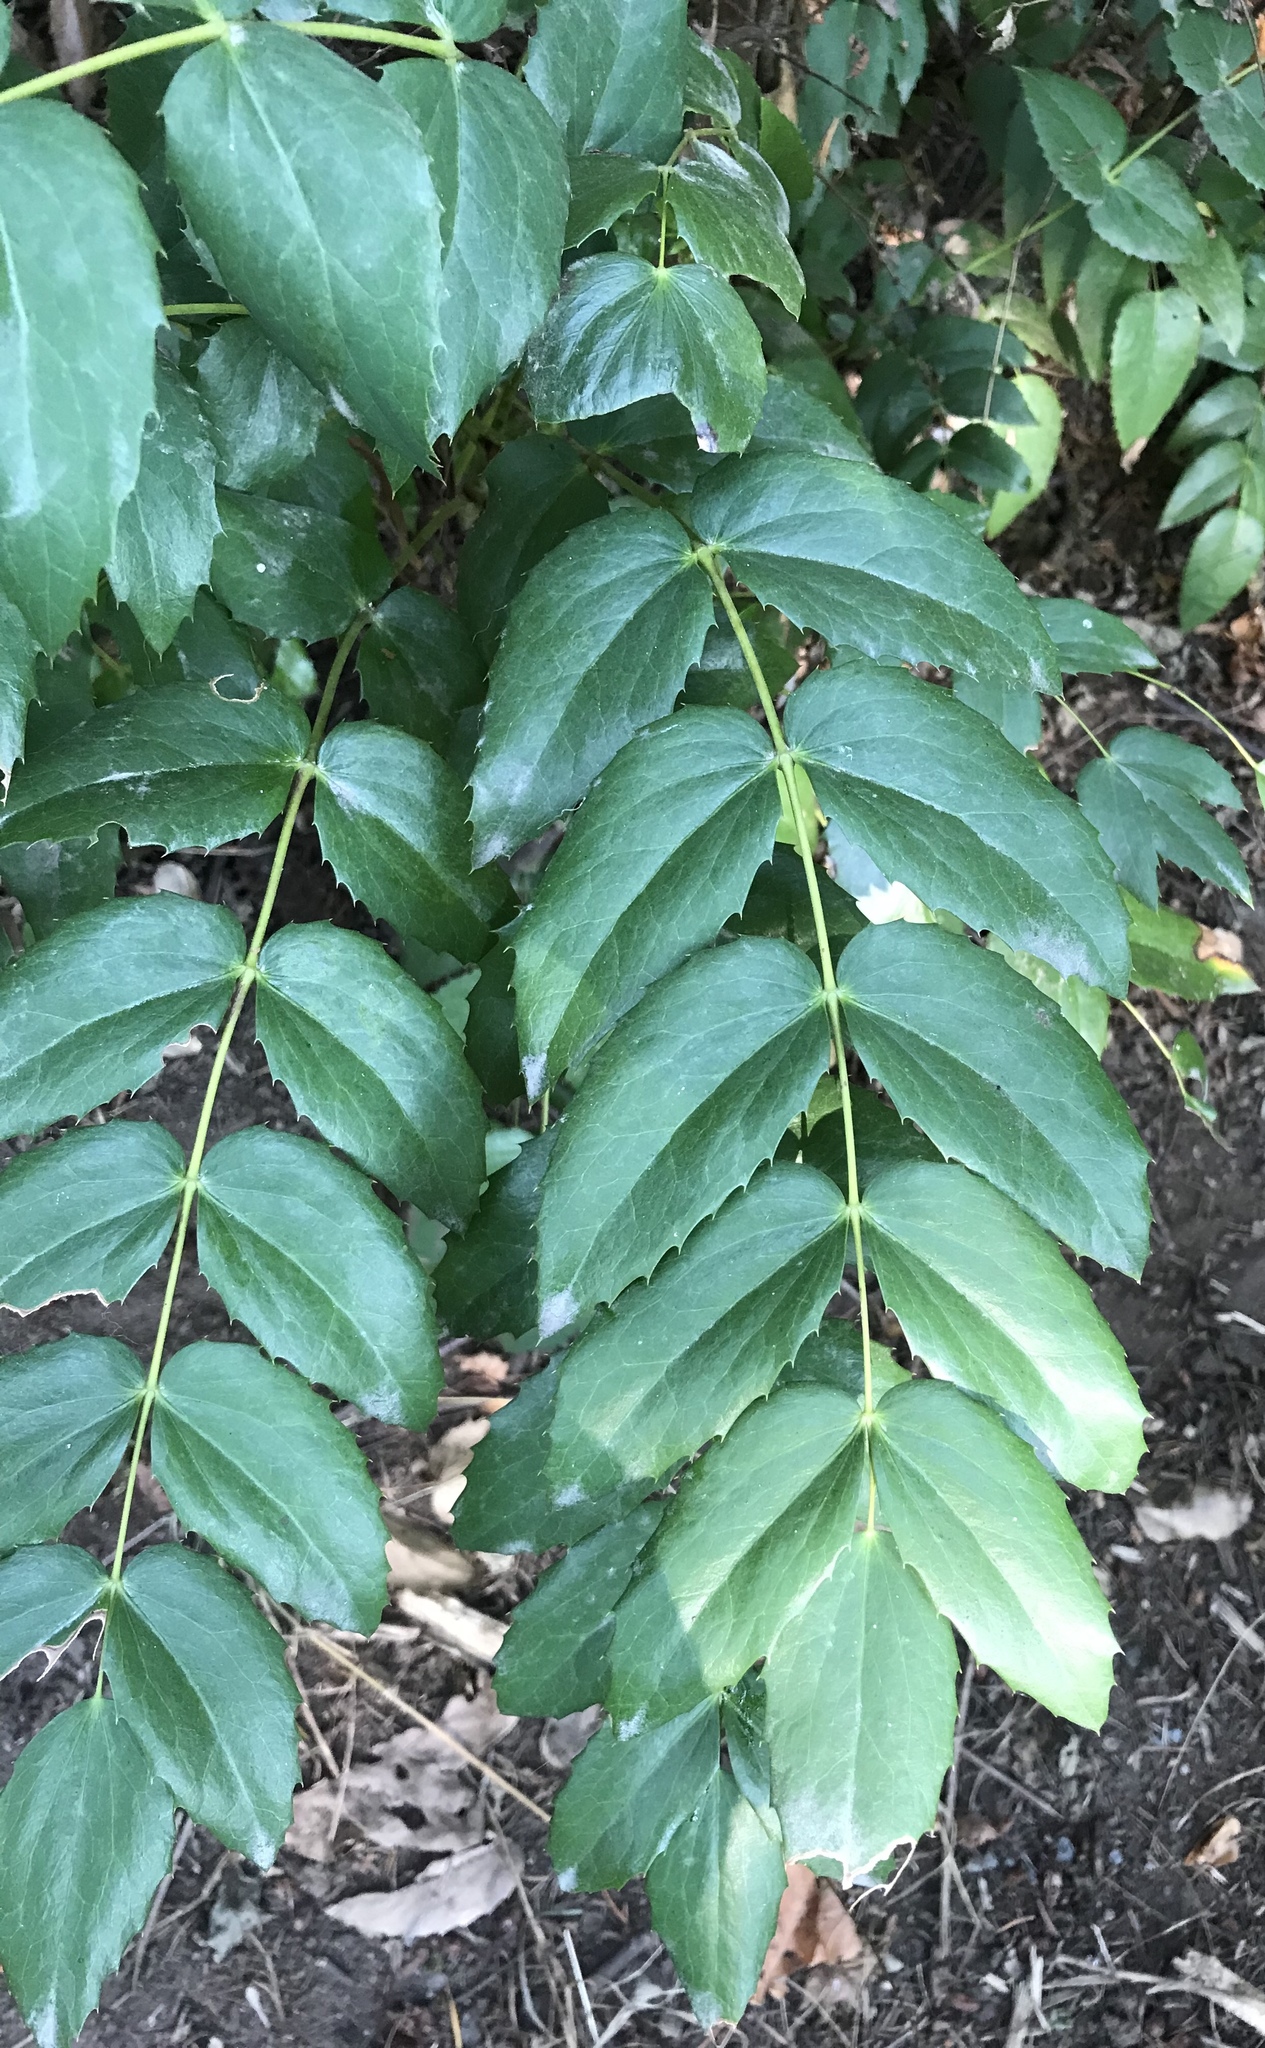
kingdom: Plantae
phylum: Tracheophyta
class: Magnoliopsida
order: Ranunculales
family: Berberidaceae
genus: Mahonia
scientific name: Mahonia nervosa
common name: Cascade oregon-grape
